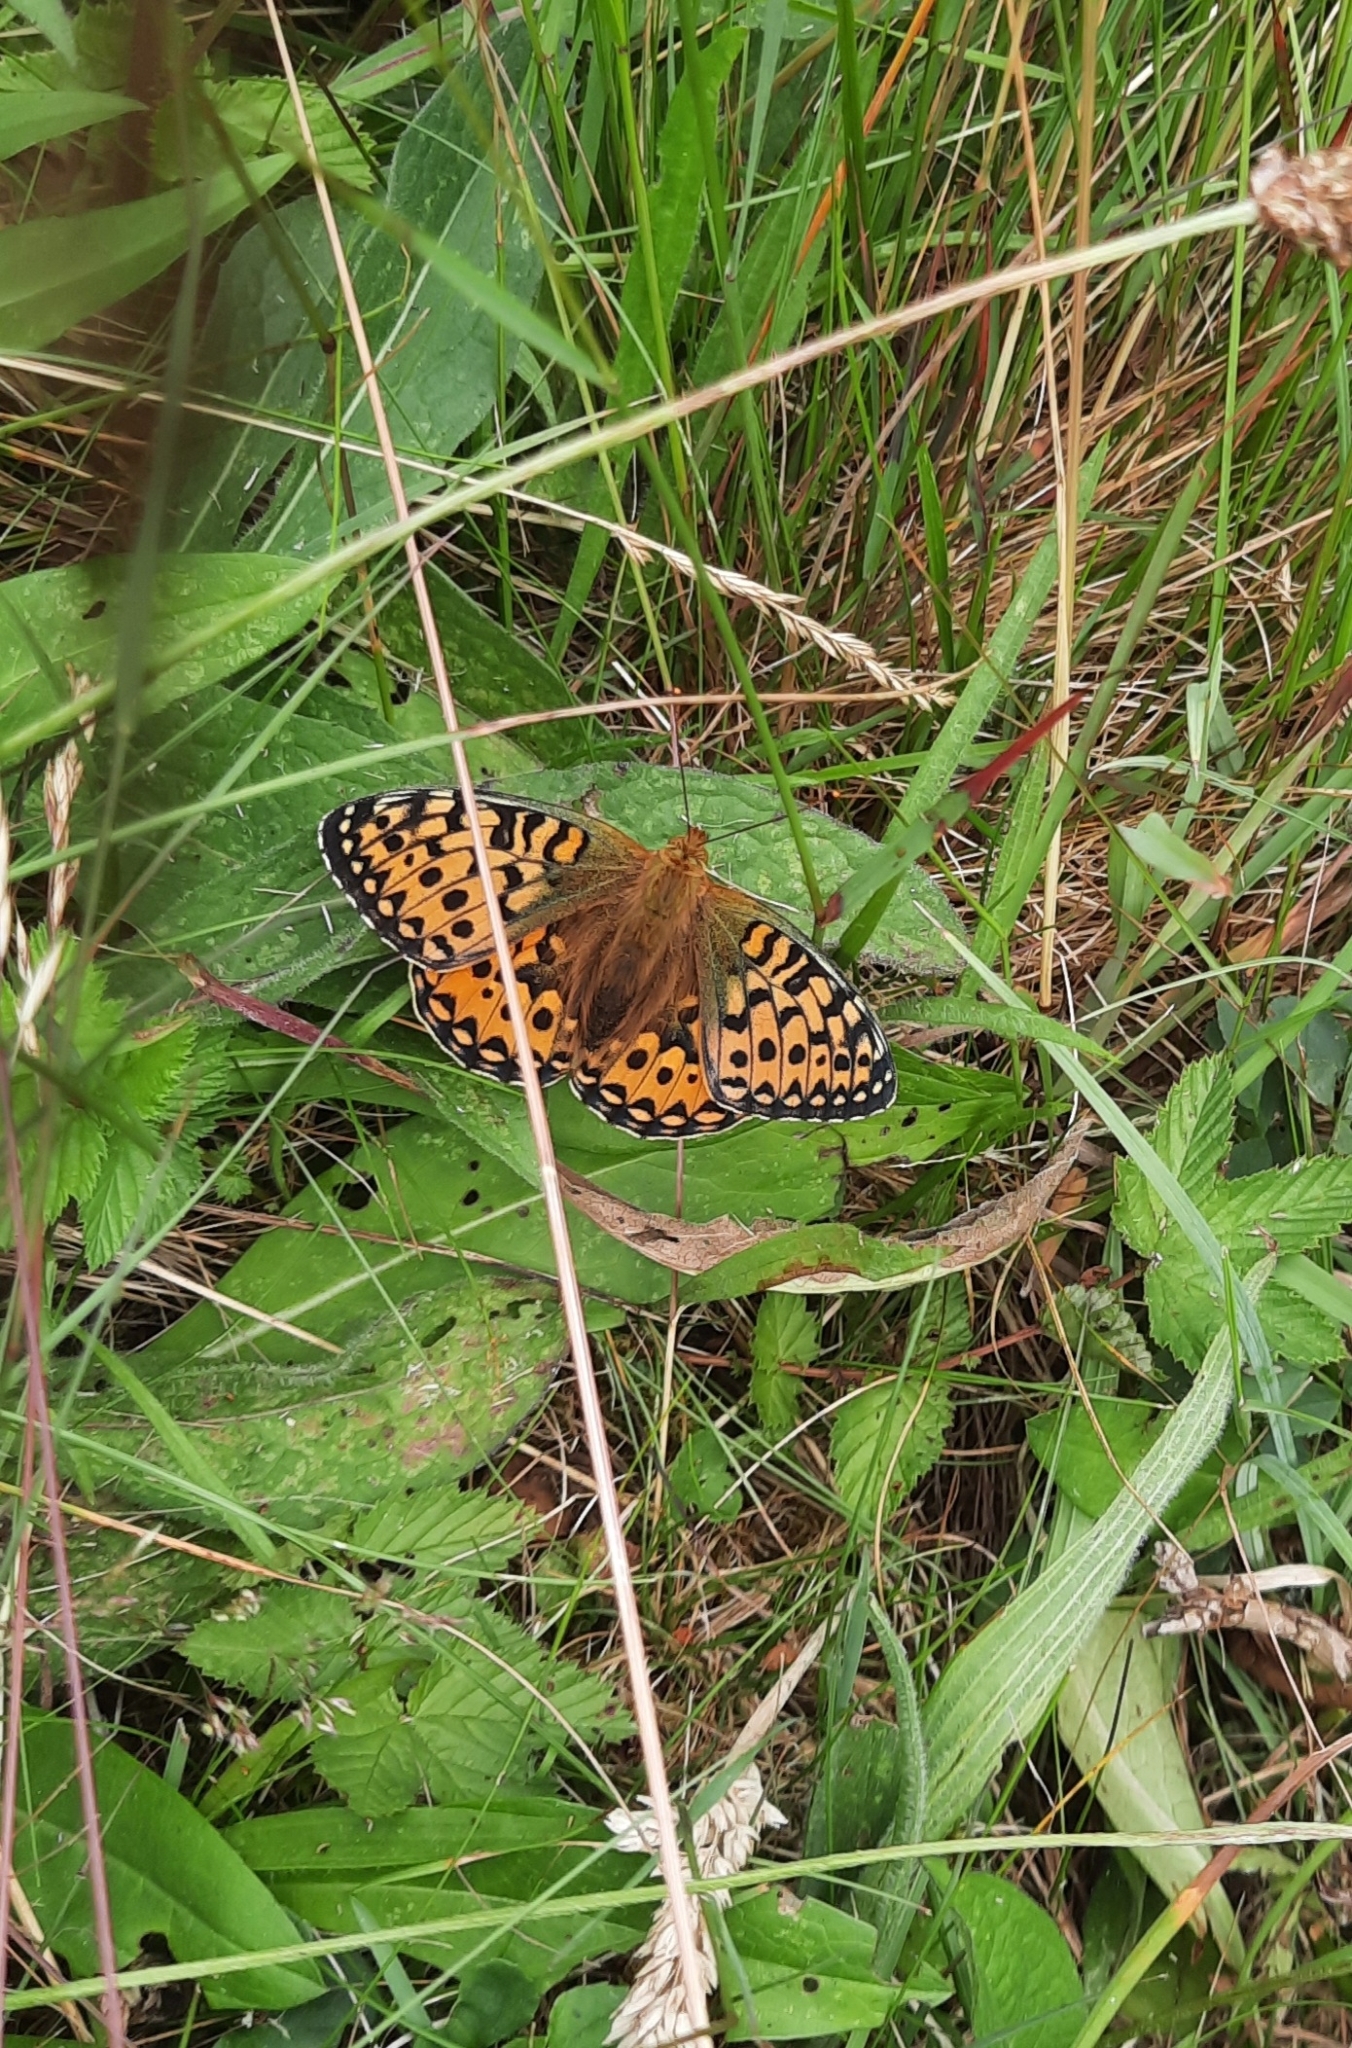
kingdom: Animalia
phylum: Arthropoda
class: Insecta
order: Lepidoptera
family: Nymphalidae
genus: Speyeria
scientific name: Speyeria aglaja
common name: Dark green fritillary
